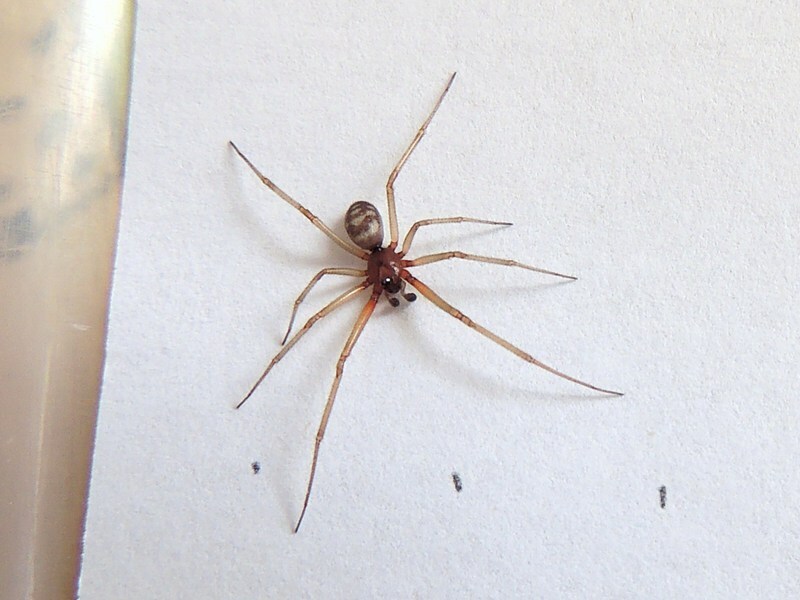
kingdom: Animalia
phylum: Arthropoda
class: Arachnida
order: Araneae
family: Theridiidae
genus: Steatoda
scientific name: Steatoda grossa
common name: False black widow
